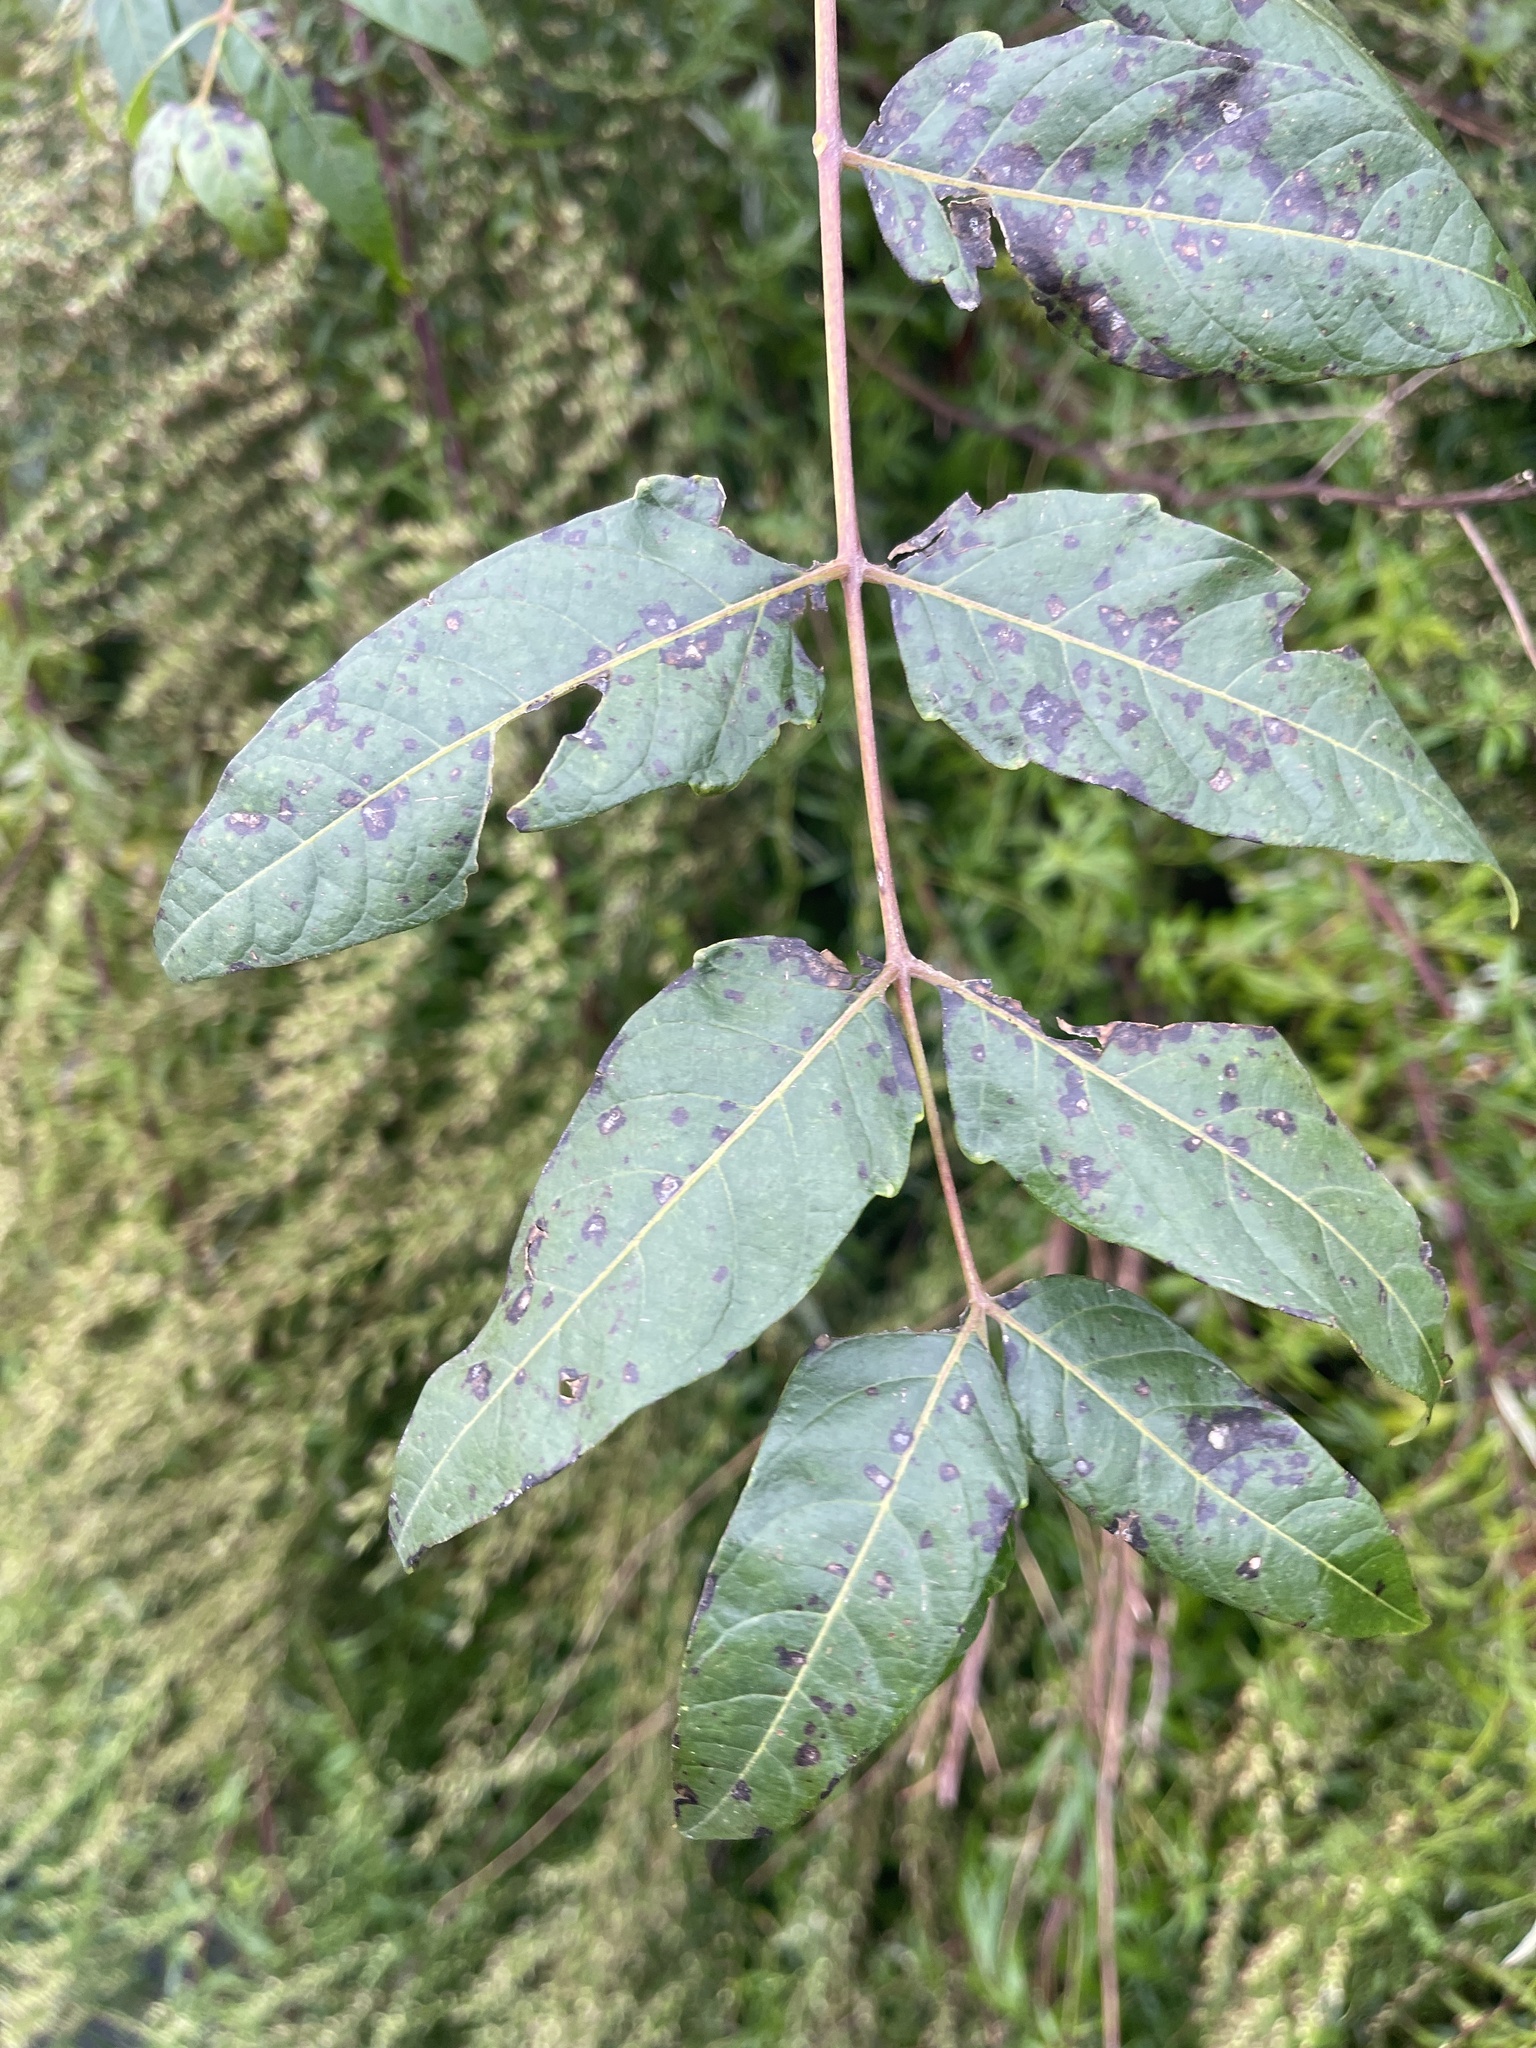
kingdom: Plantae
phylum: Tracheophyta
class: Magnoliopsida
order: Sapindales
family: Simaroubaceae
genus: Ailanthus
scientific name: Ailanthus altissima
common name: Tree-of-heaven
